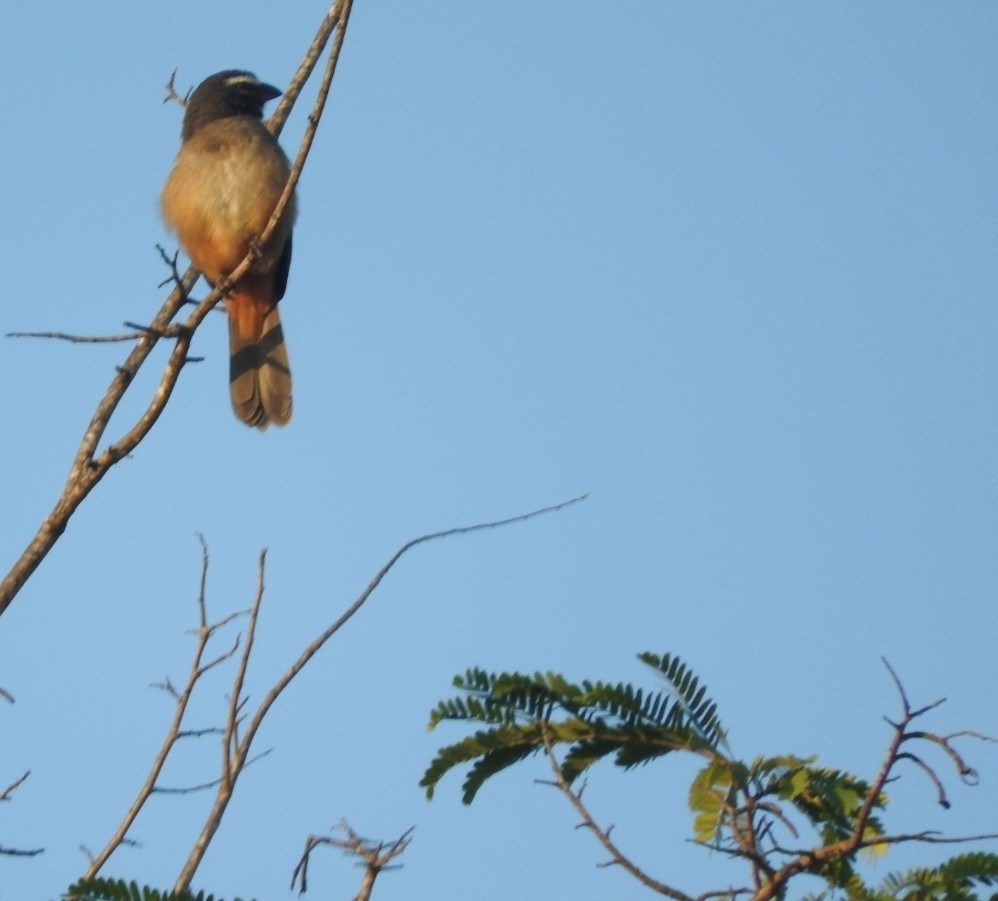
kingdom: Animalia
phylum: Chordata
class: Aves
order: Passeriformes
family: Thraupidae
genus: Saltator
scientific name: Saltator grandis
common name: Cinnamon-bellied saltator
